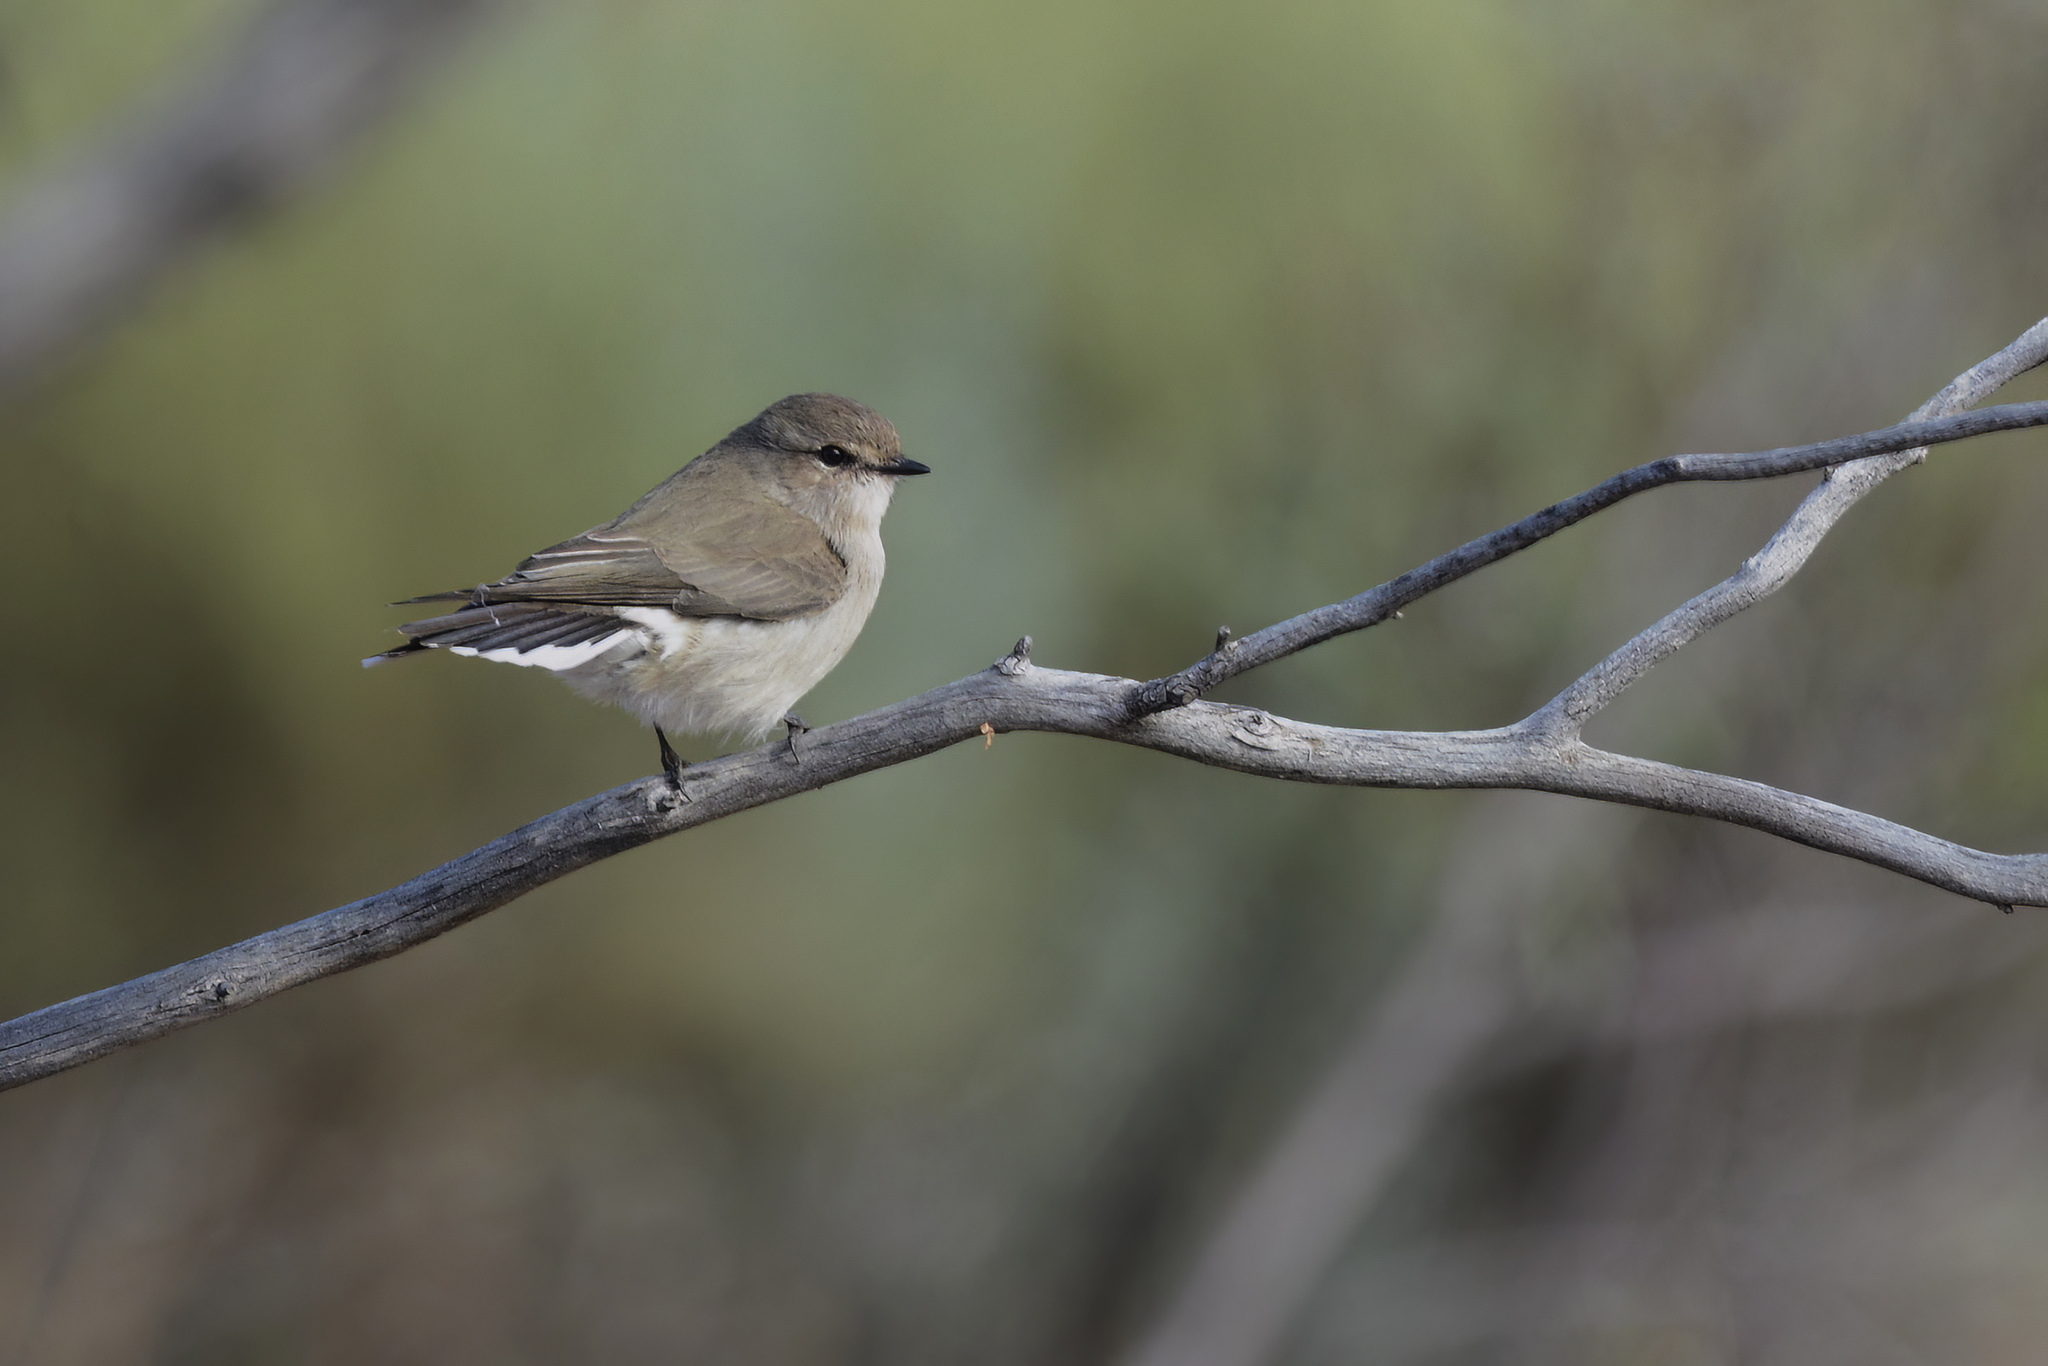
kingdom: Animalia
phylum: Chordata
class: Aves
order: Passeriformes
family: Petroicidae
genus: Microeca
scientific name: Microeca fascinans
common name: Jacky winter
